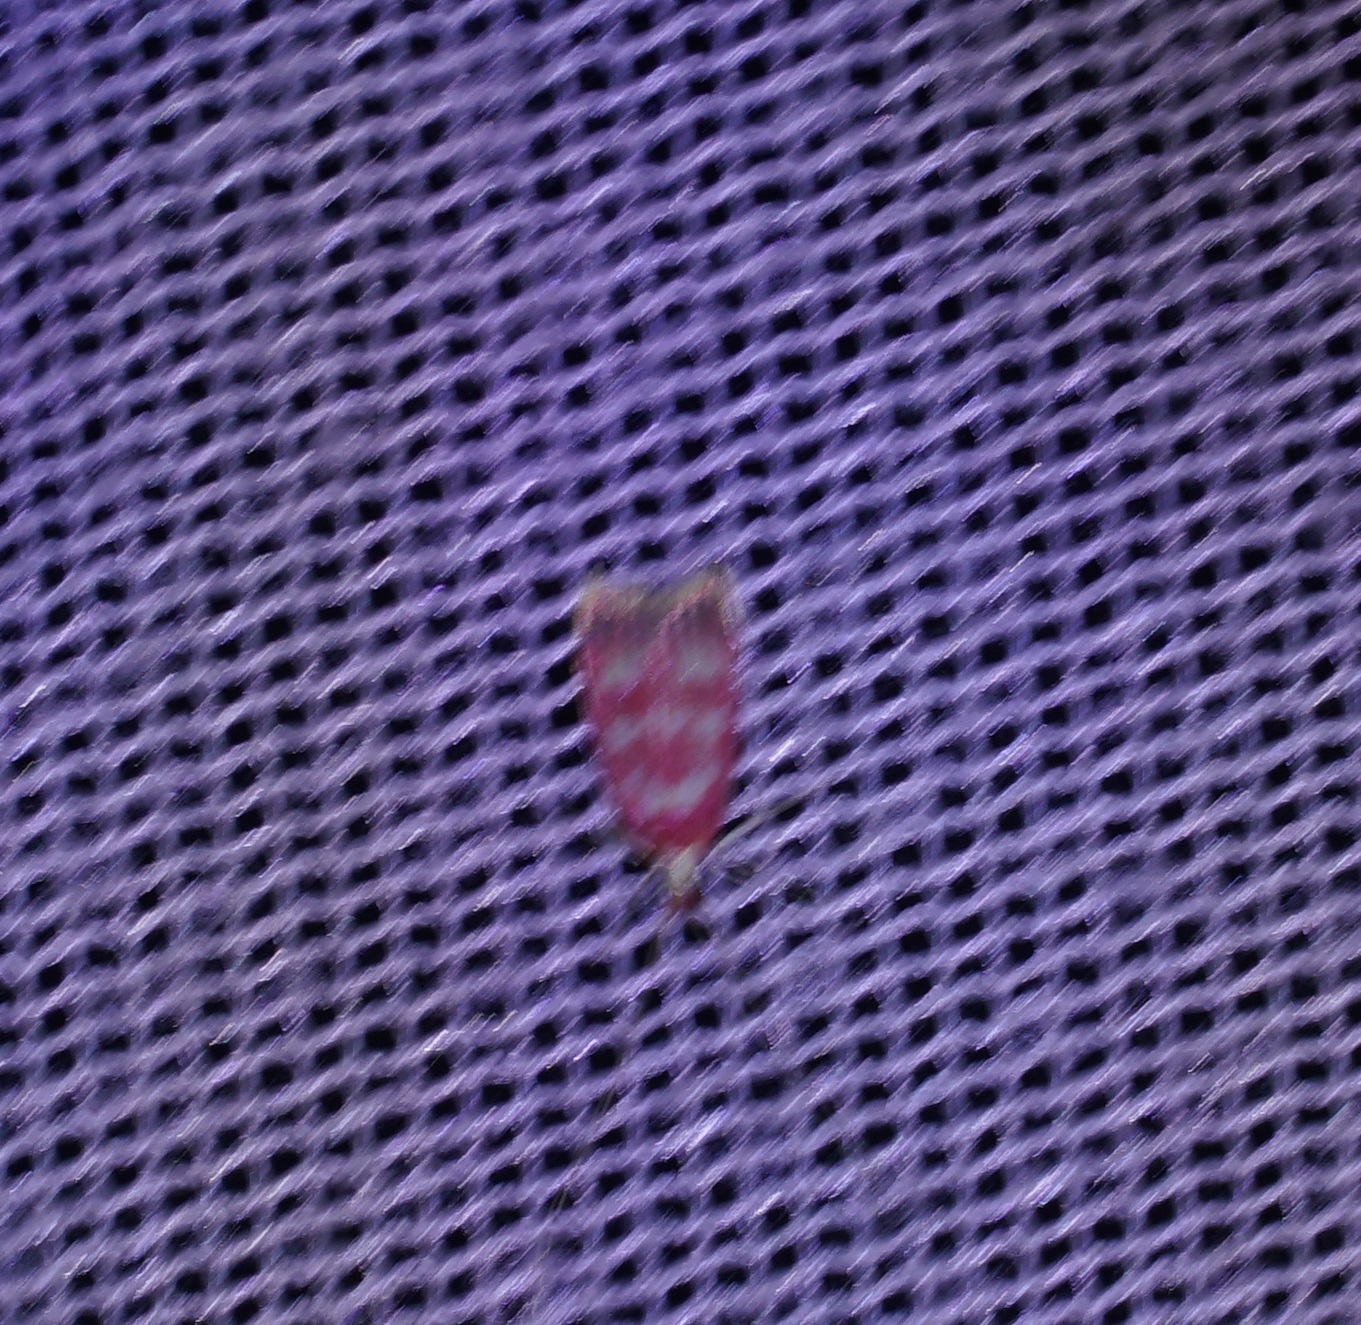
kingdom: Animalia
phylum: Arthropoda
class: Insecta
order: Lepidoptera
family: Lecithoceridae
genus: Crocanthes
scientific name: Crocanthes sidonia
